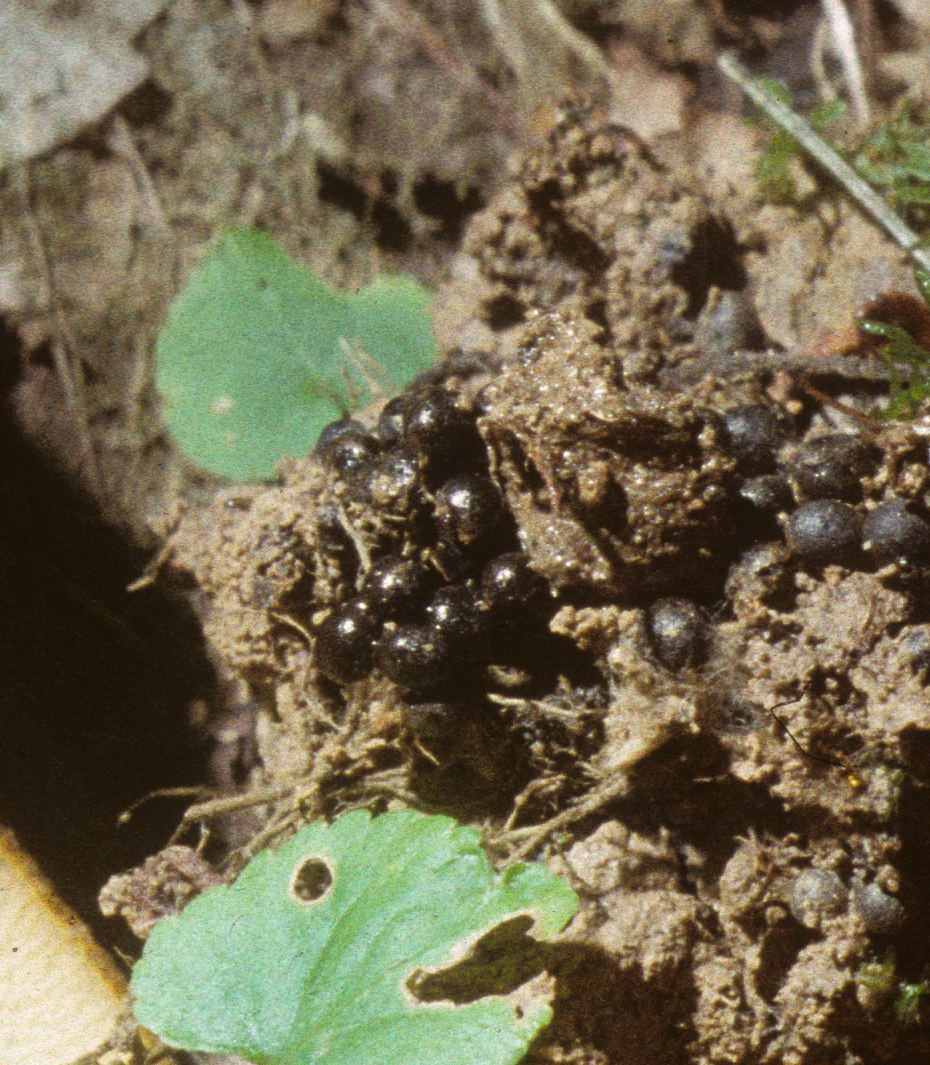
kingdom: Fungi
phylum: Basidiomycota
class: Agaricomycetes
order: Boletales
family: Boletinellaceae
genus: Boletinellus
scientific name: Boletinellus merulioides
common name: Ash tree bolete
